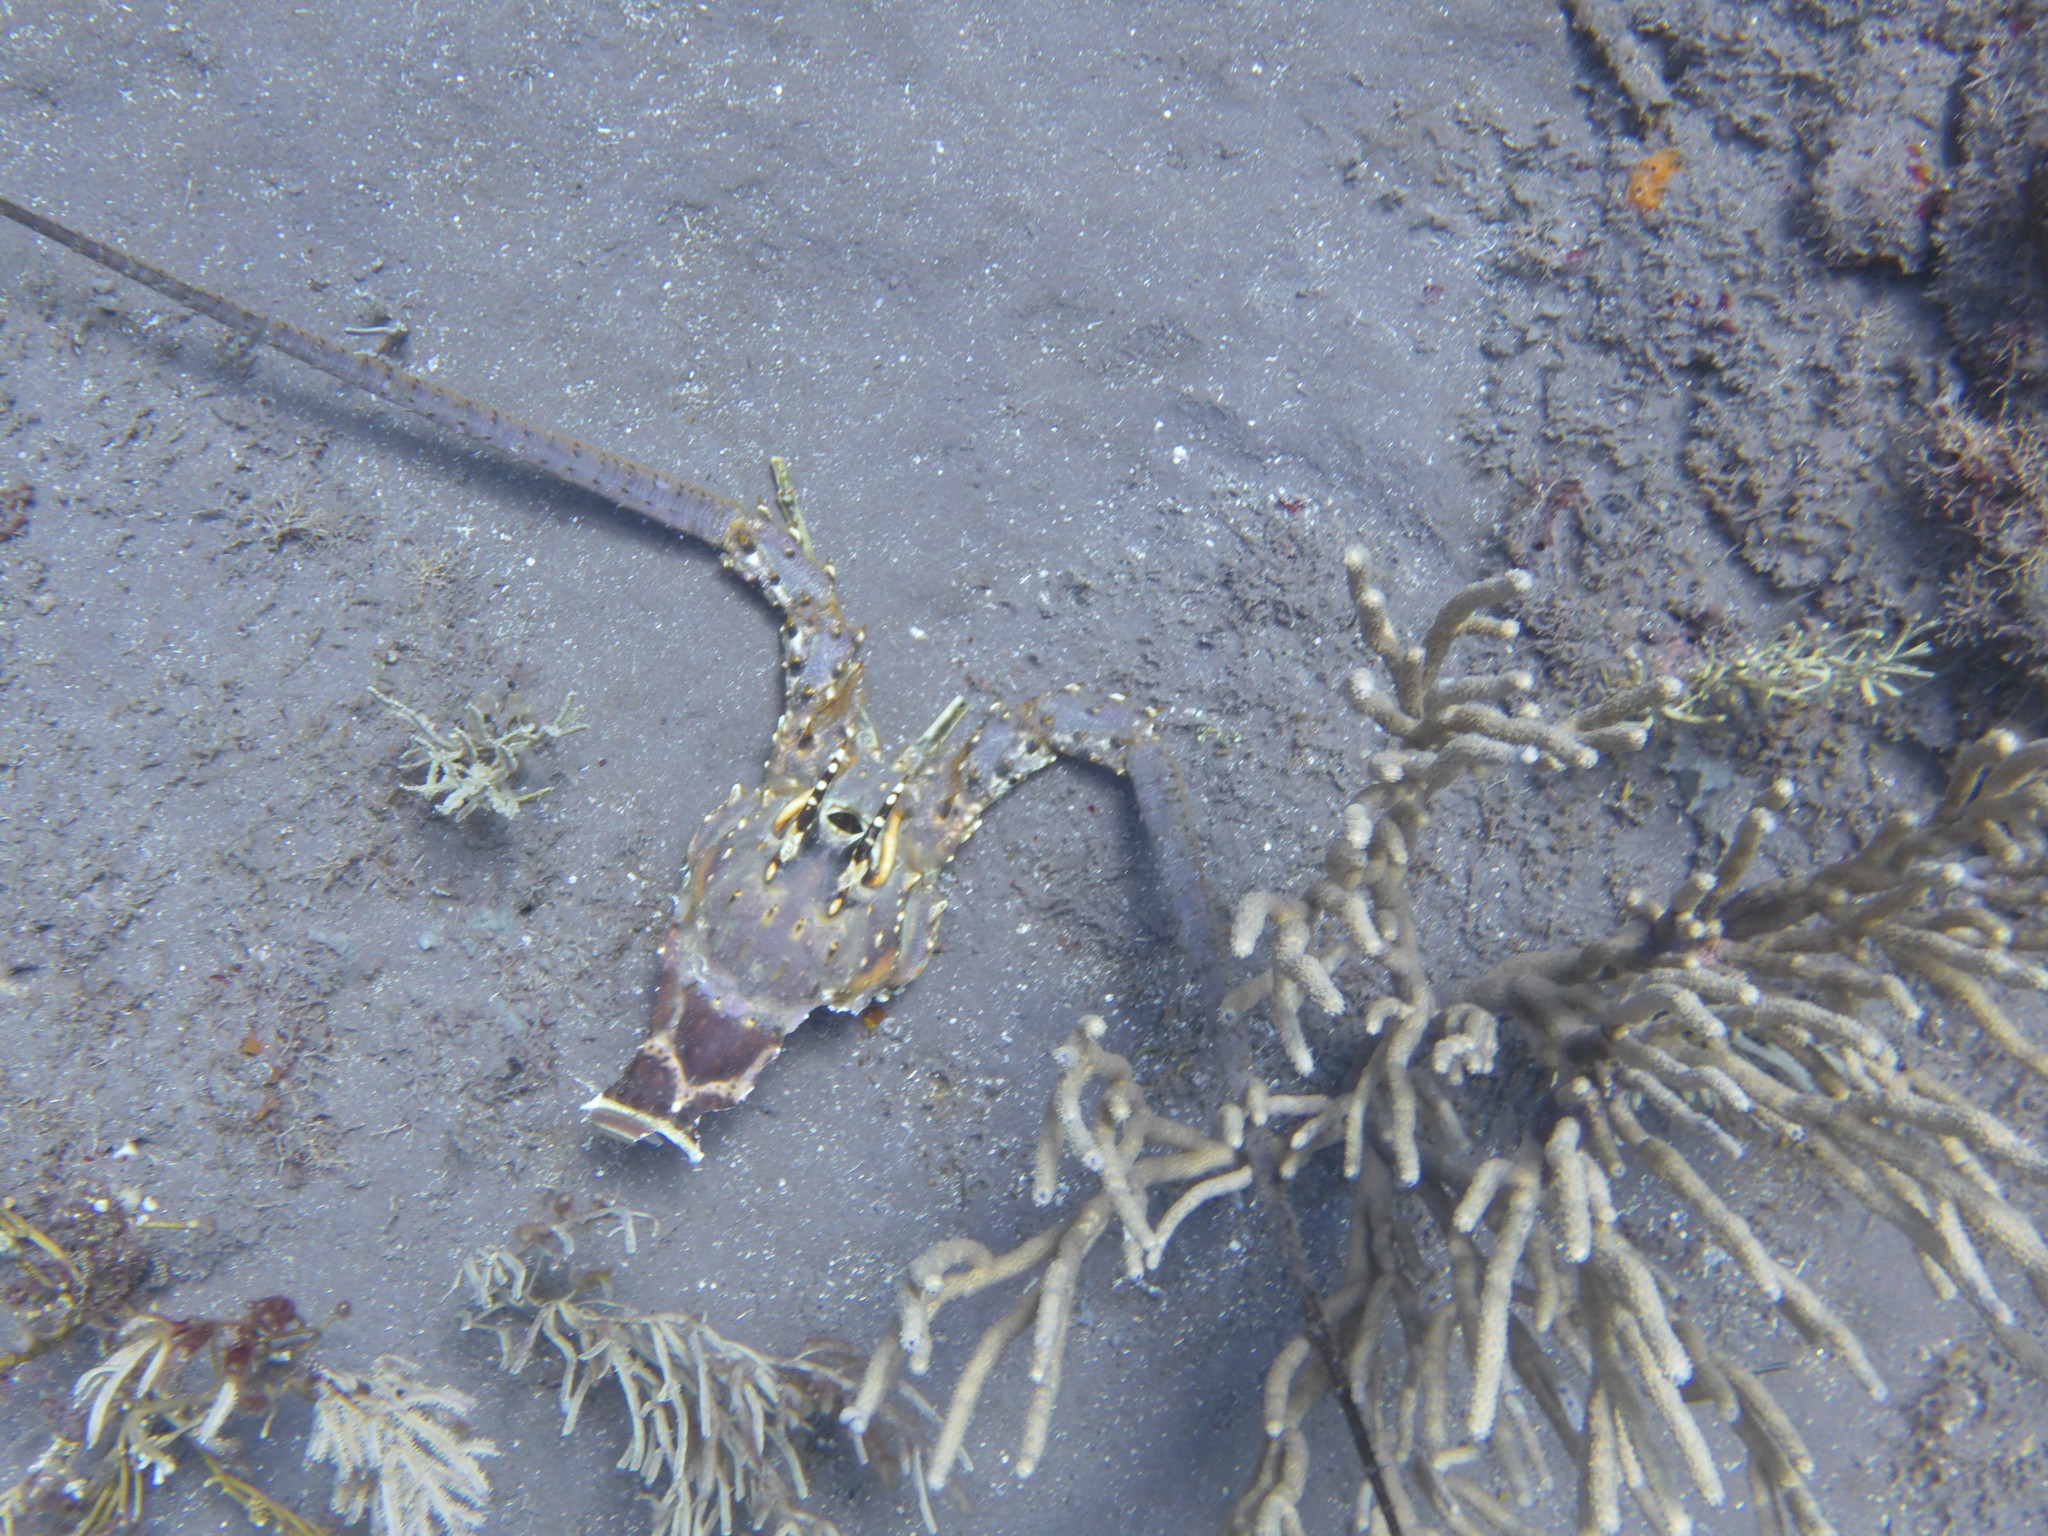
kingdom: Animalia
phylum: Arthropoda
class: Malacostraca
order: Decapoda
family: Palinuridae
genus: Panulirus
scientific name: Panulirus argus
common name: Caribbean spiny lobster
